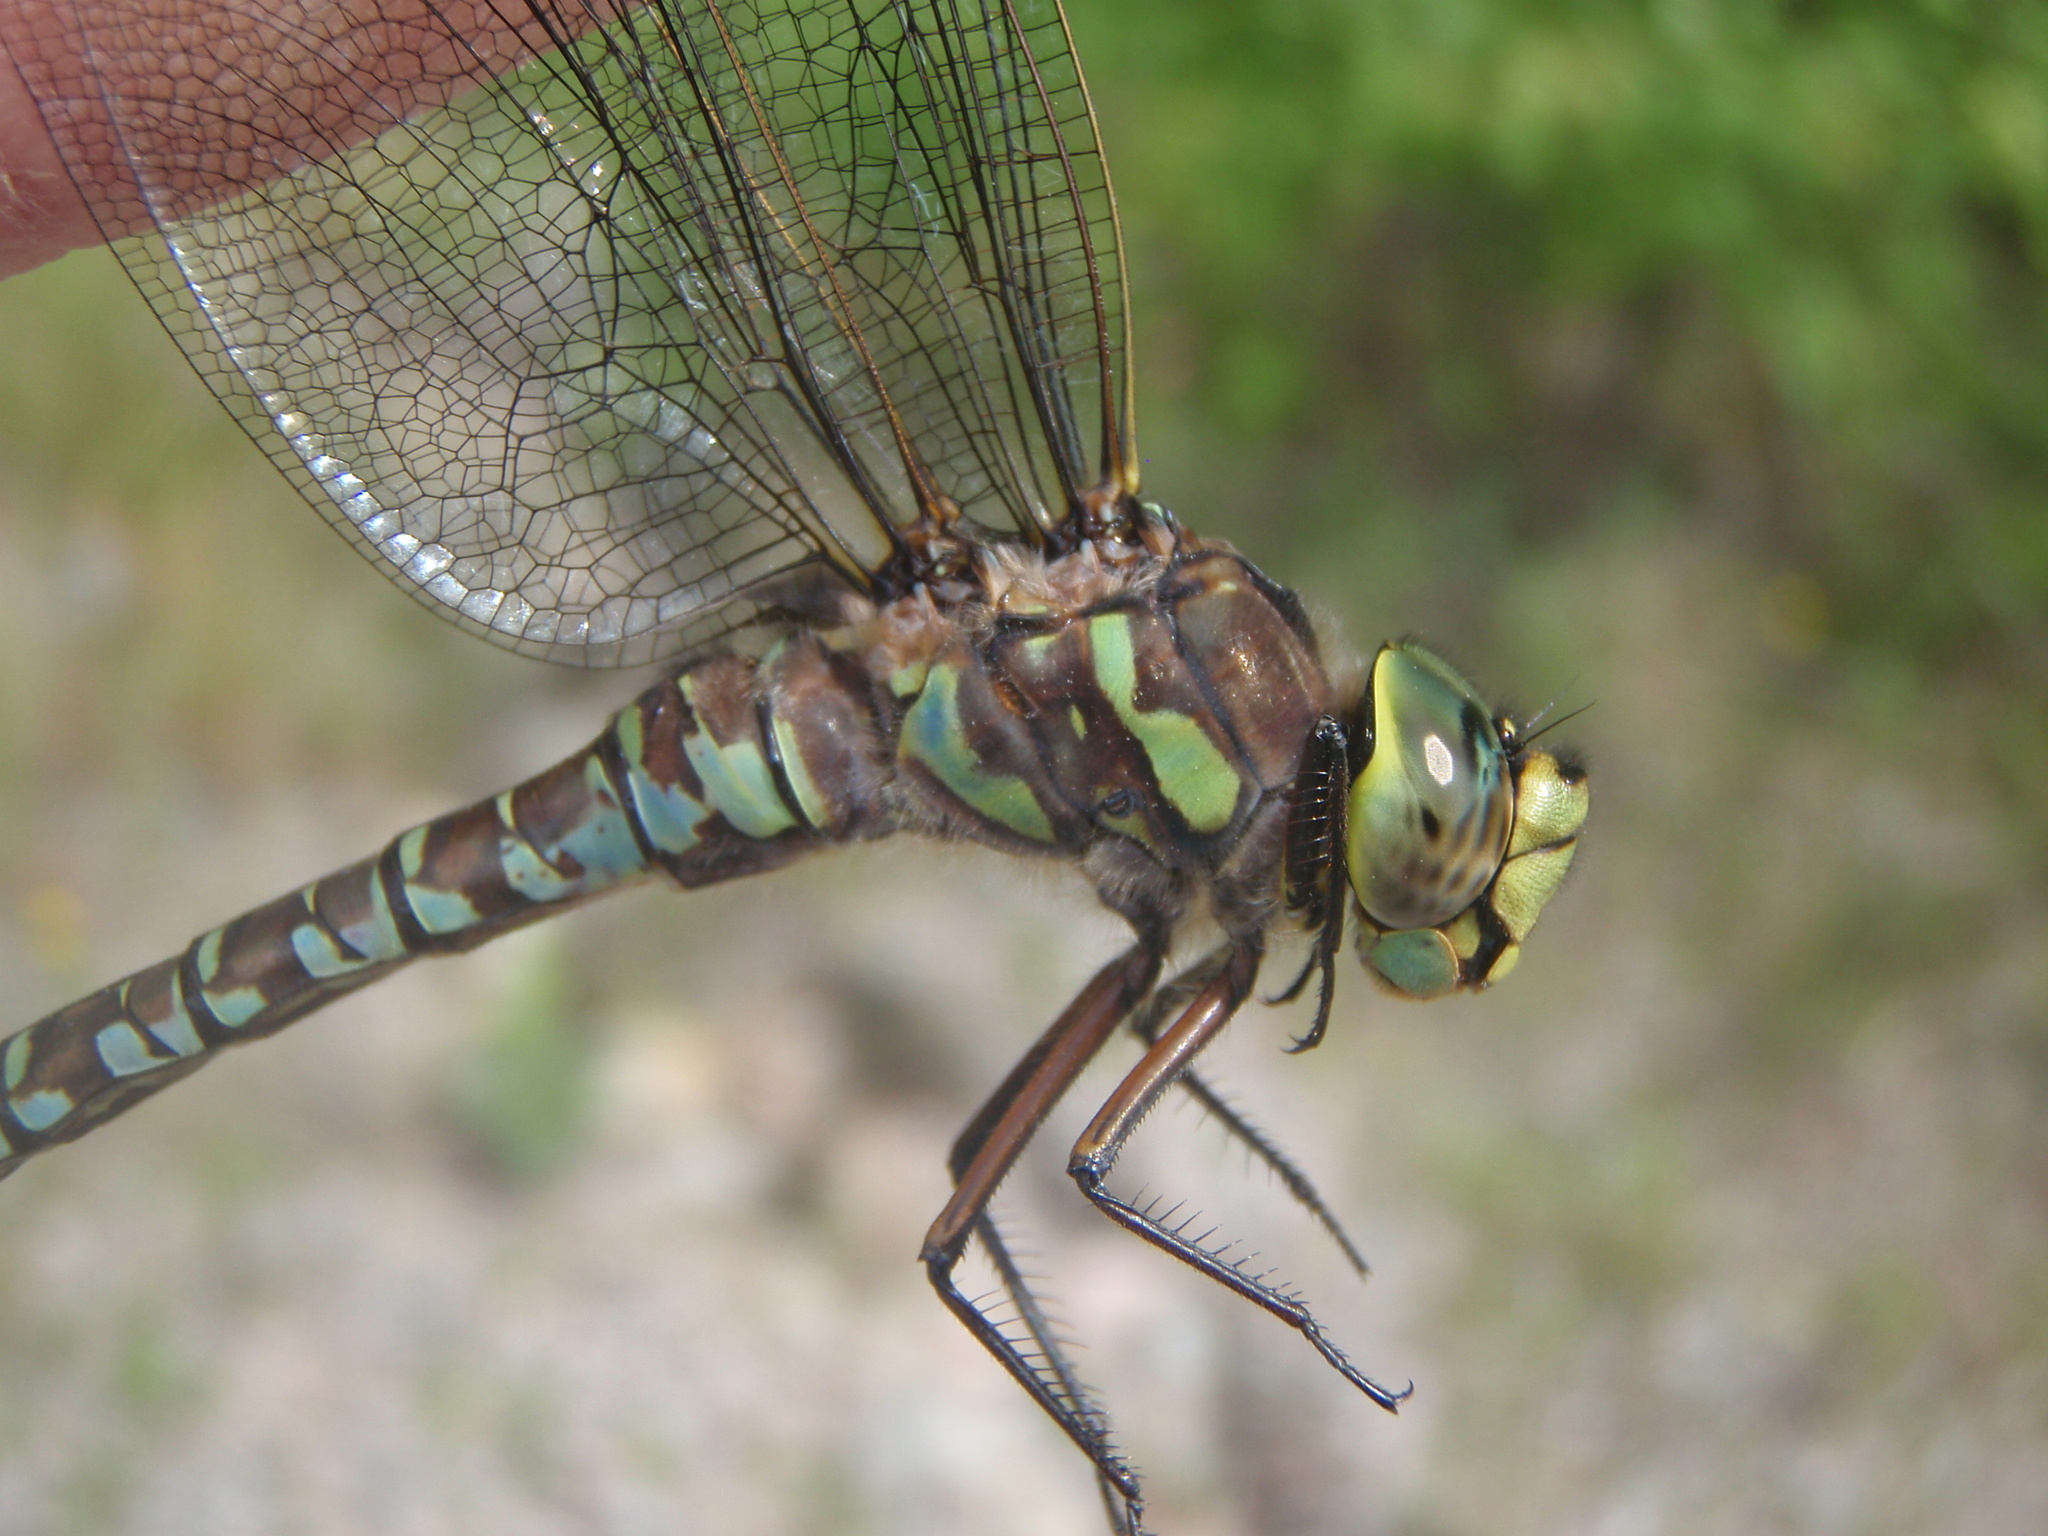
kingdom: Animalia
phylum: Arthropoda
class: Insecta
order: Odonata
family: Aeshnidae
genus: Aeshna
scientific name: Aeshna eremita
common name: Lake darner
